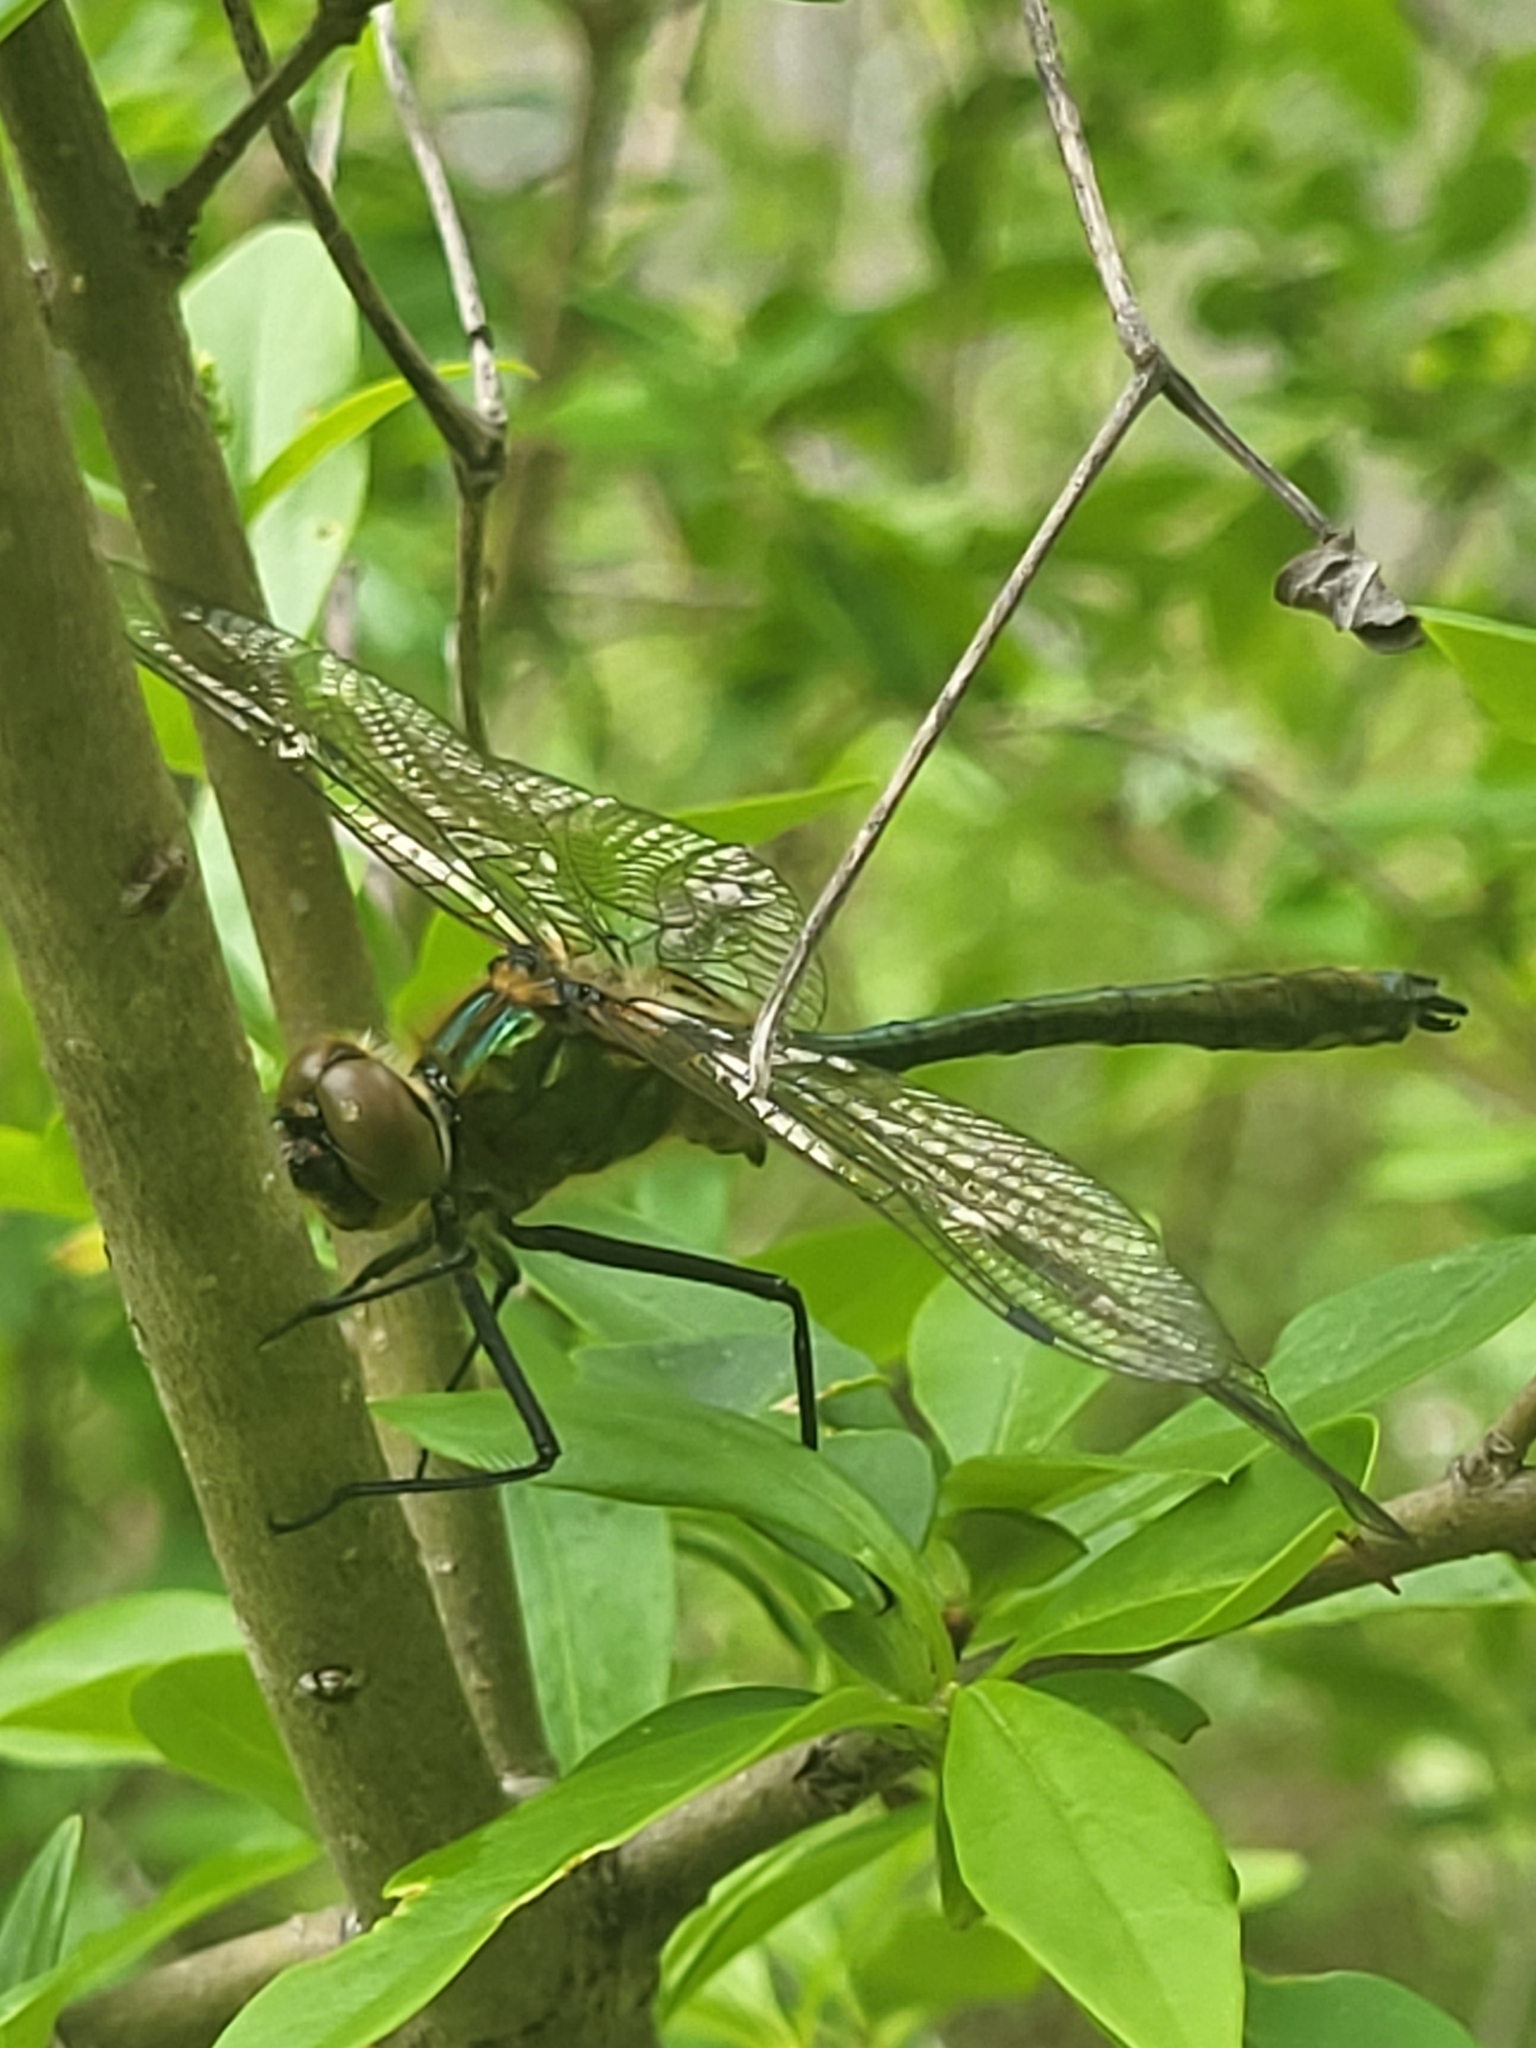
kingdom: Animalia
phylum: Arthropoda
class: Insecta
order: Odonata
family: Corduliidae
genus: Cordulia
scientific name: Cordulia aenea
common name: Downy emerald
